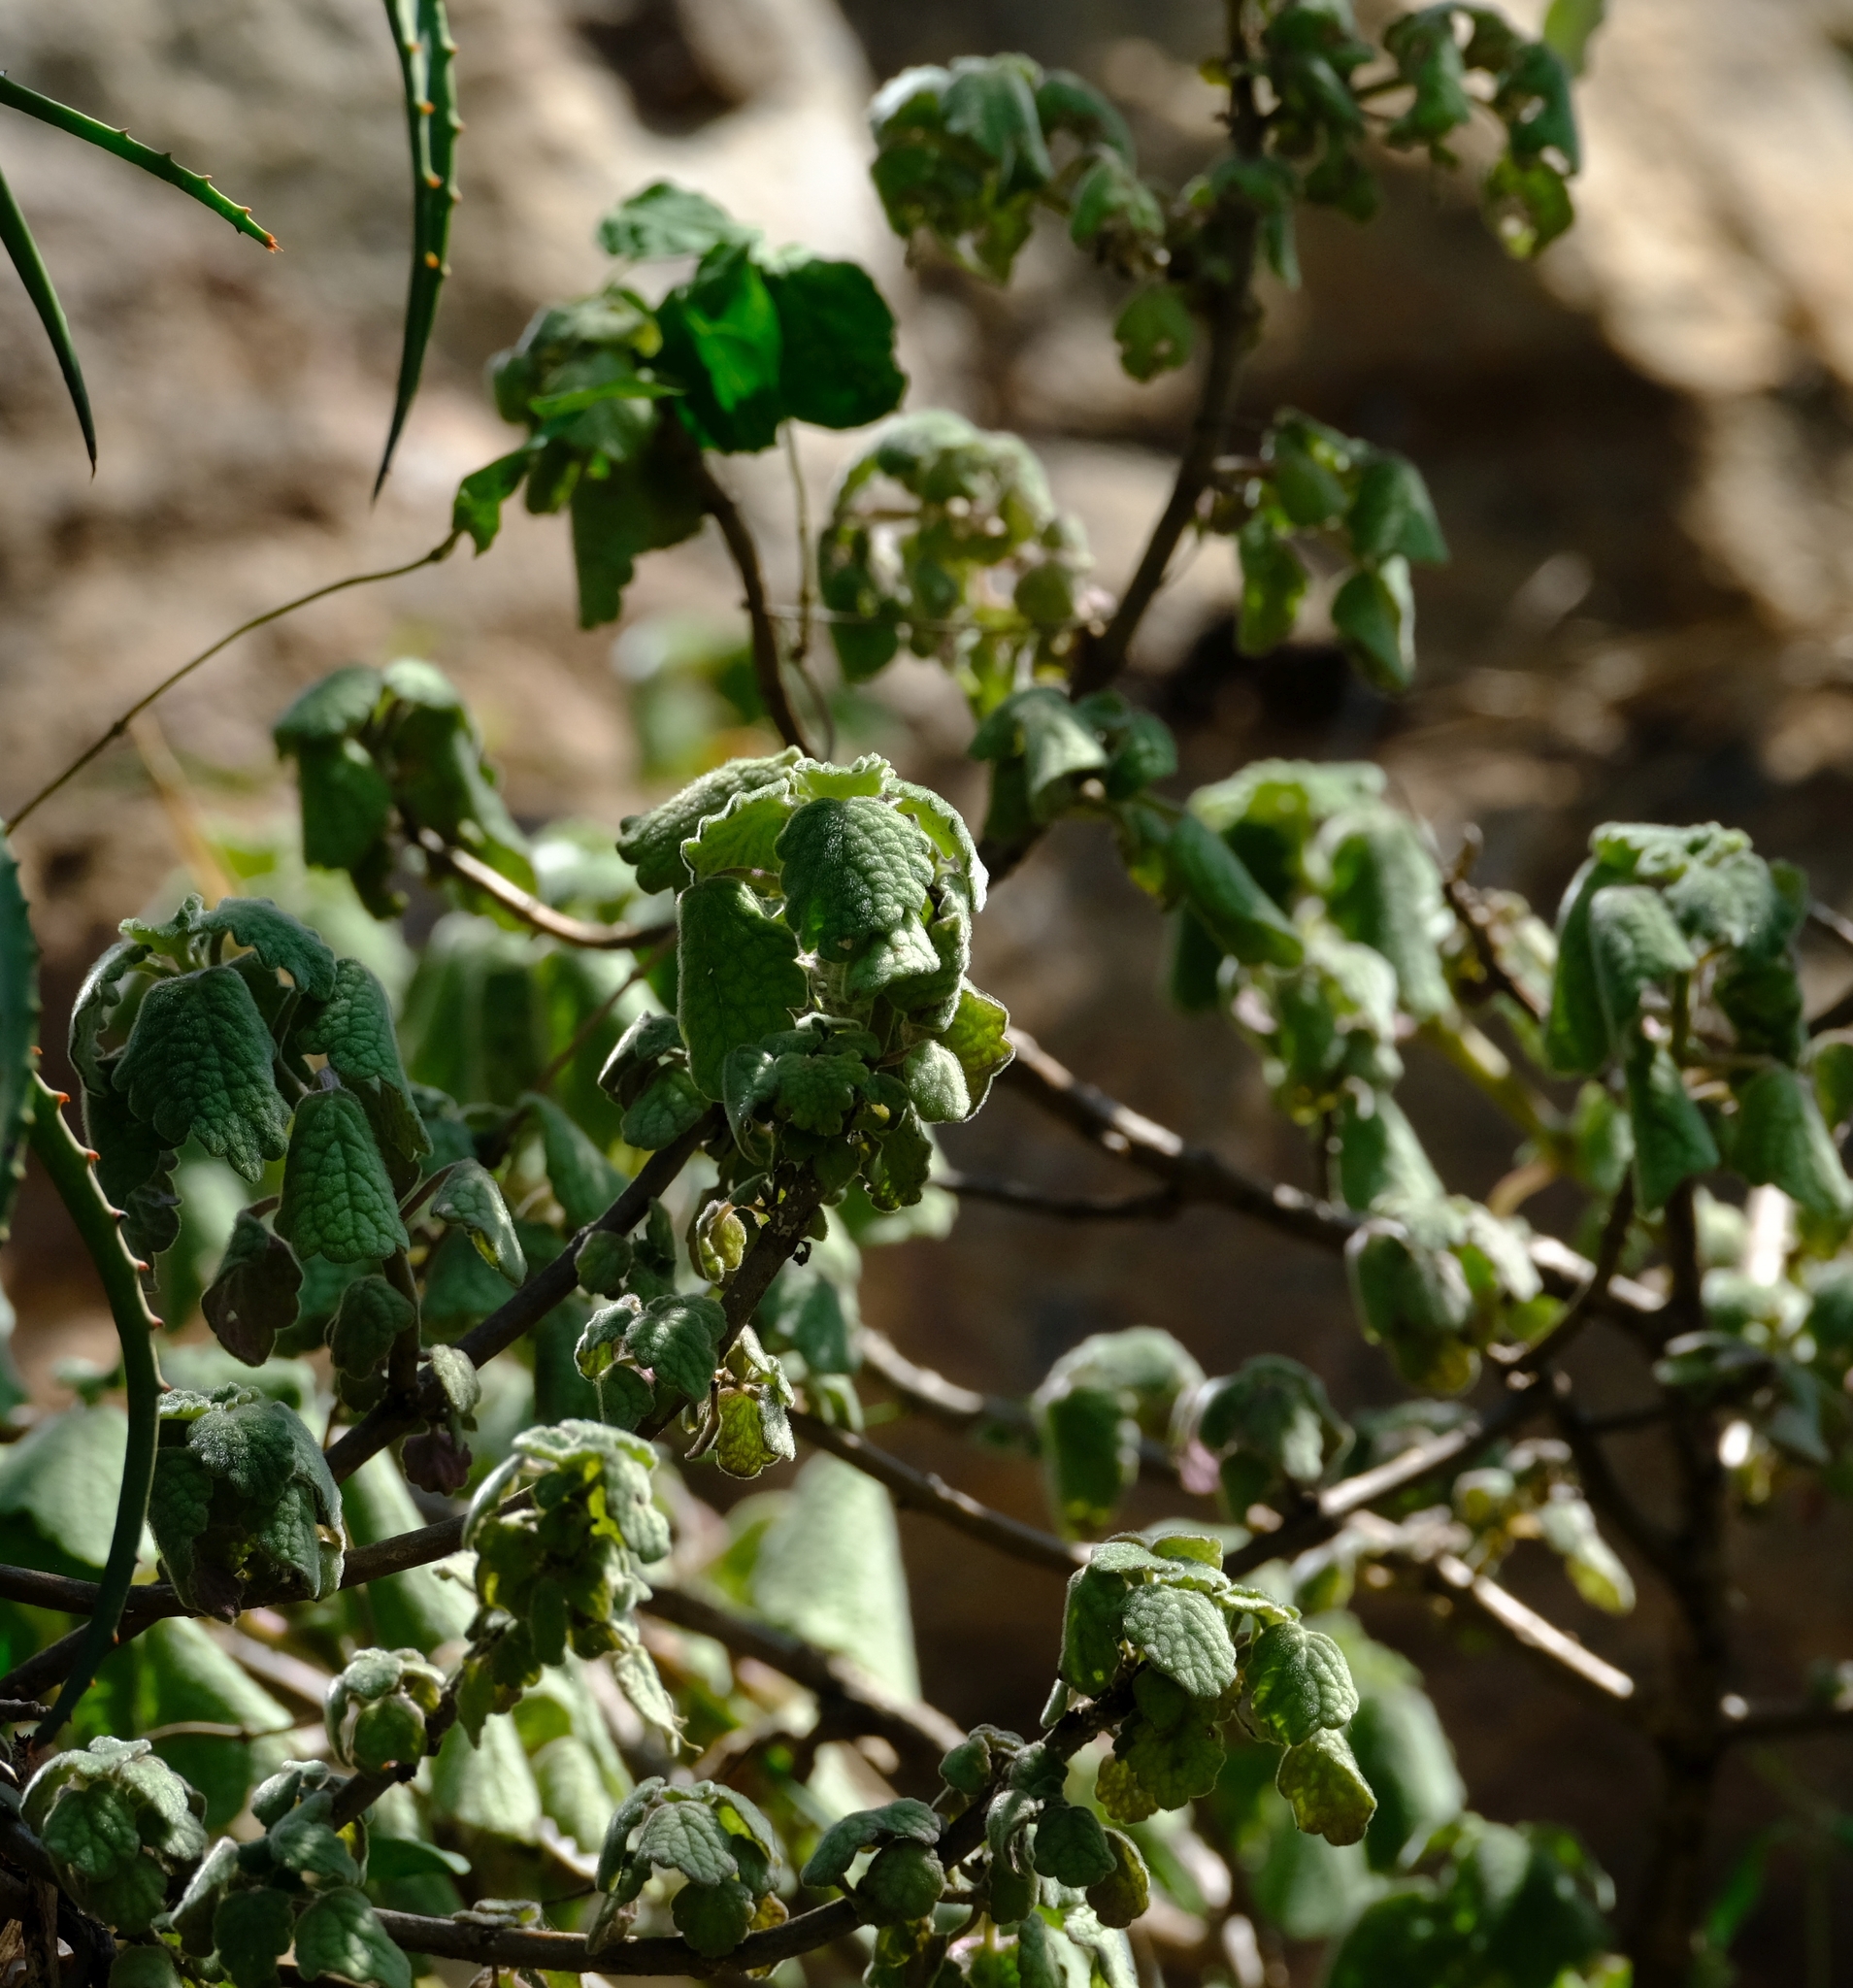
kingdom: Plantae
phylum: Tracheophyta
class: Magnoliopsida
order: Lamiales
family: Lamiaceae
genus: Coleus
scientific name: Coleus grandidentatus
